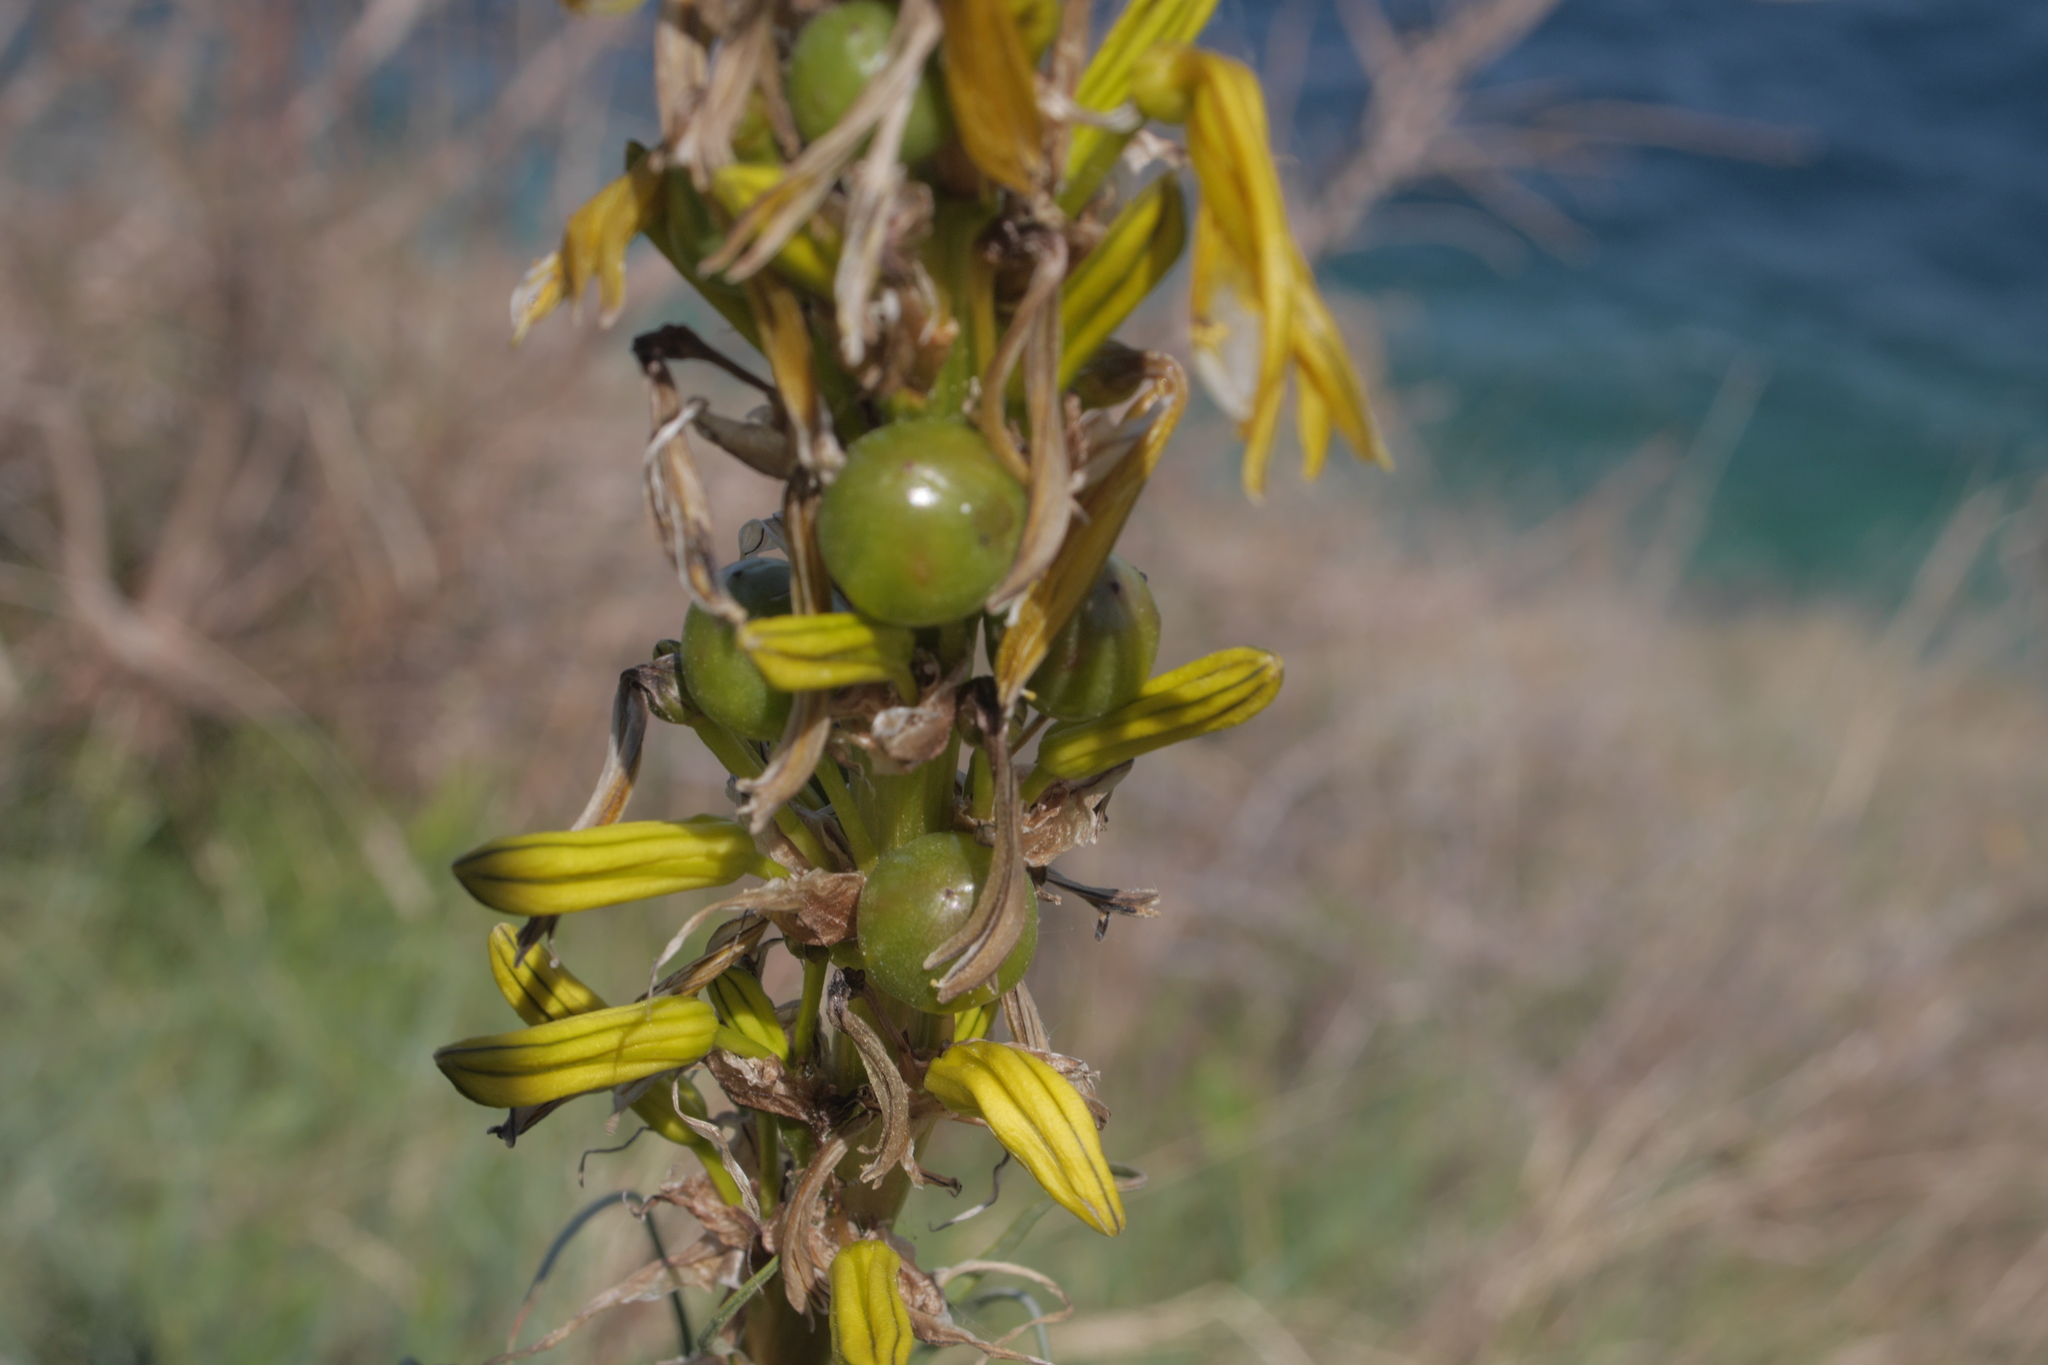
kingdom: Plantae
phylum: Tracheophyta
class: Liliopsida
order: Asparagales
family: Asphodelaceae
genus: Asphodeline
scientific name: Asphodeline lutea
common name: Yellow asphodel
